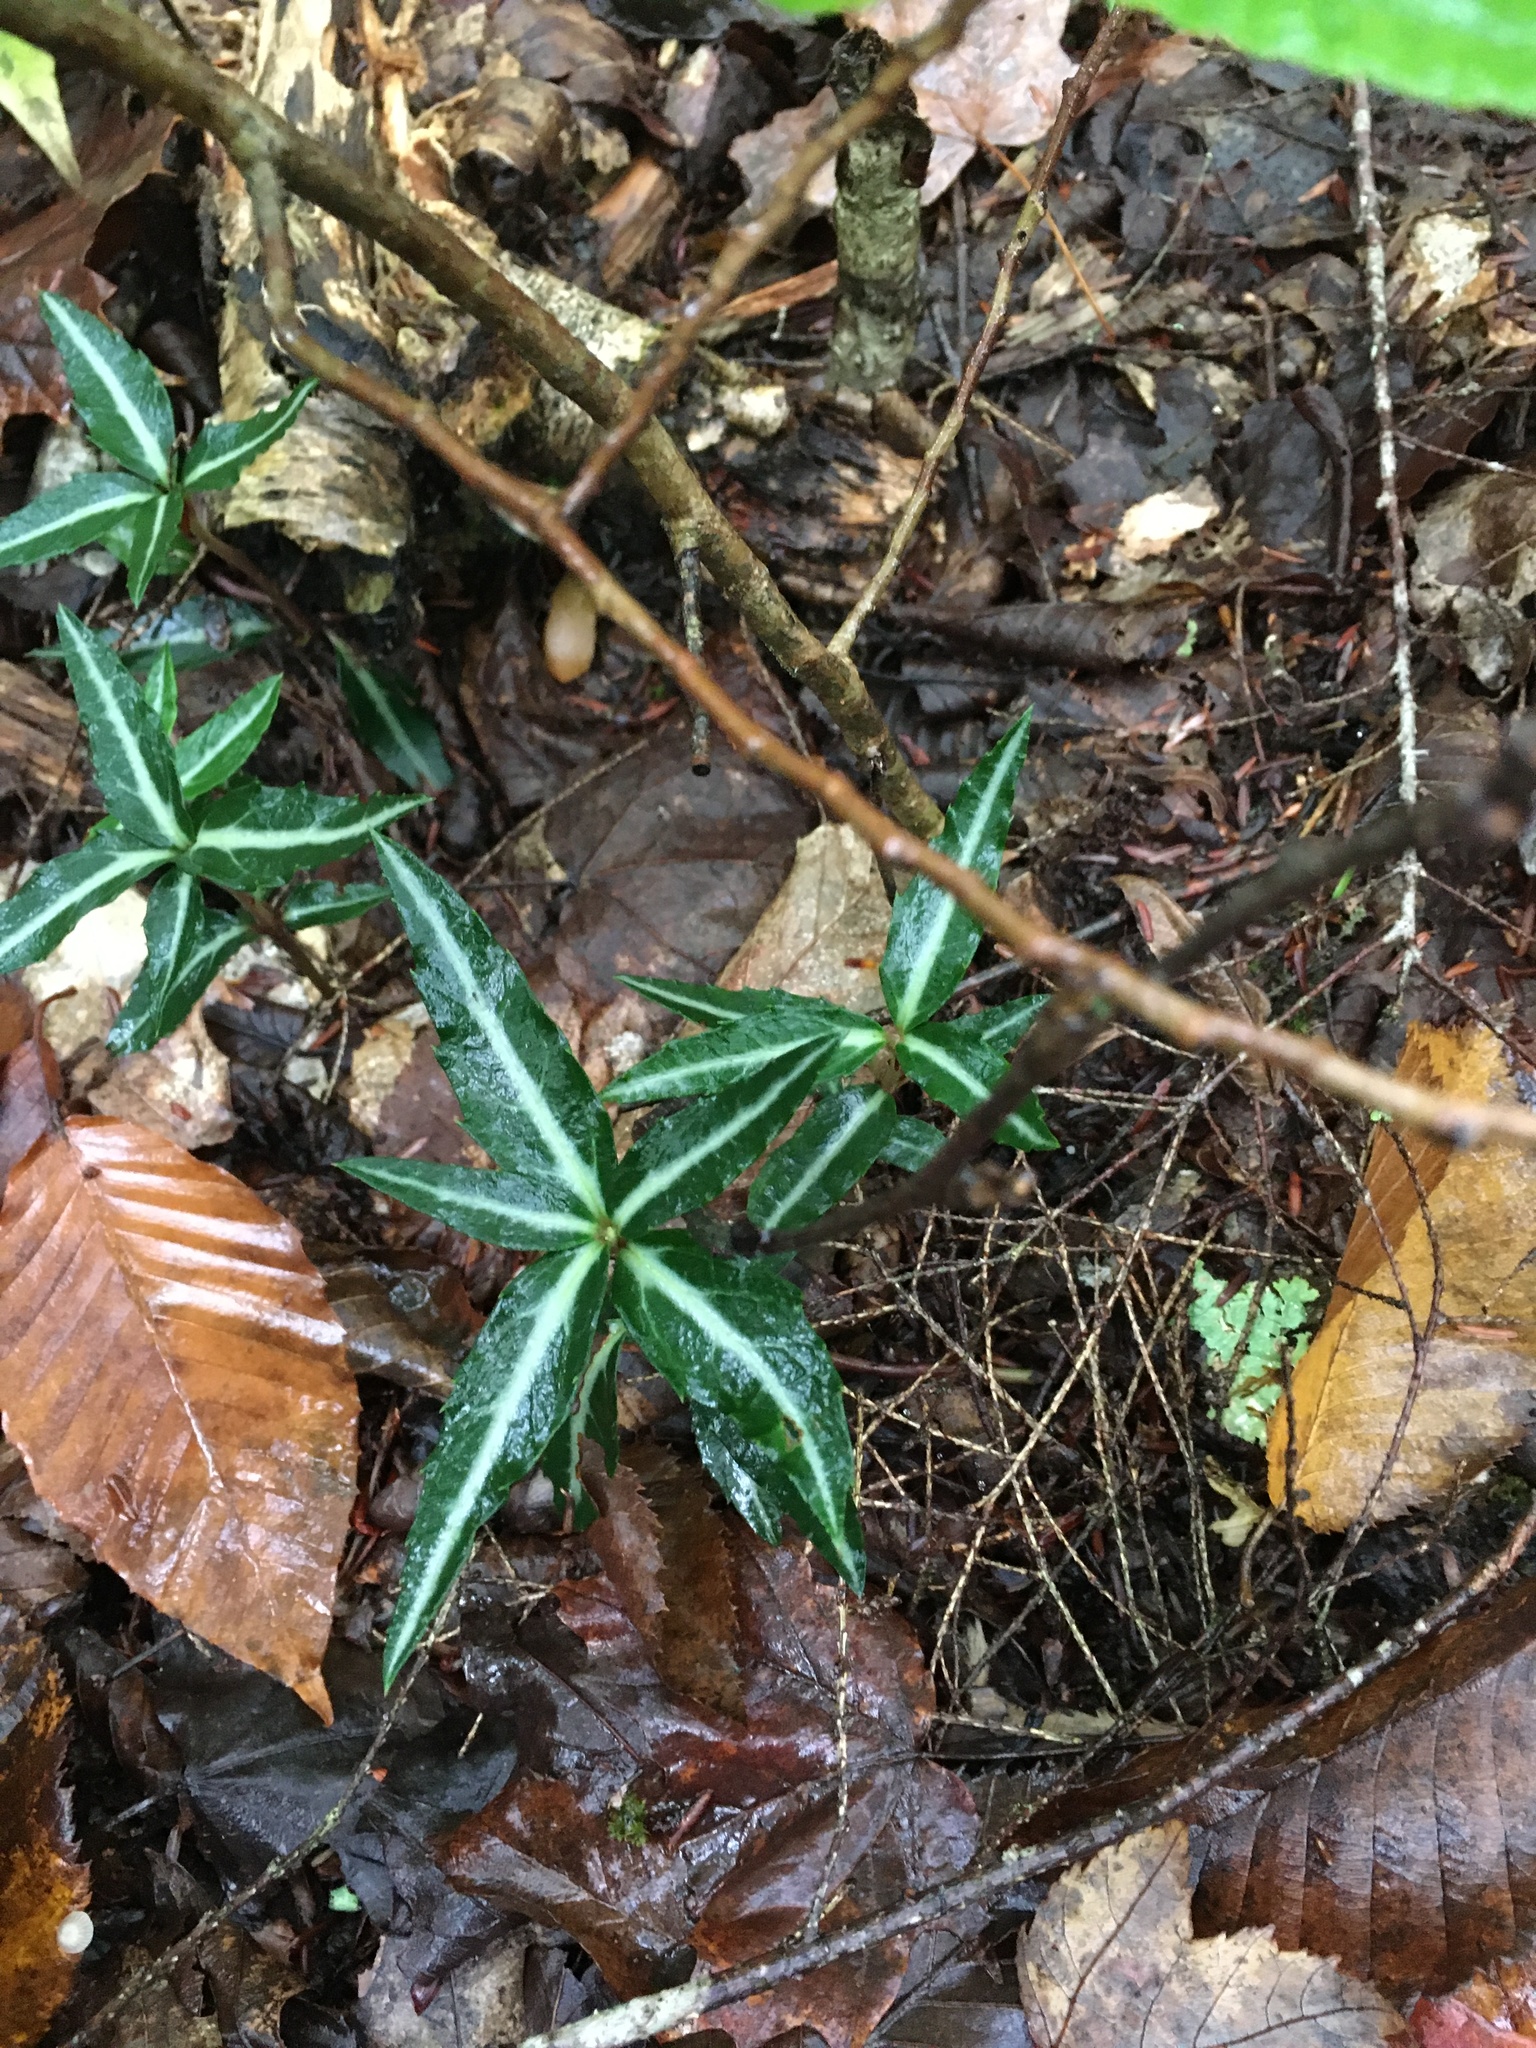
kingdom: Plantae
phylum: Tracheophyta
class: Magnoliopsida
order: Ericales
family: Ericaceae
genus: Chimaphila
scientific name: Chimaphila maculata
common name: Spotted pipsissewa
